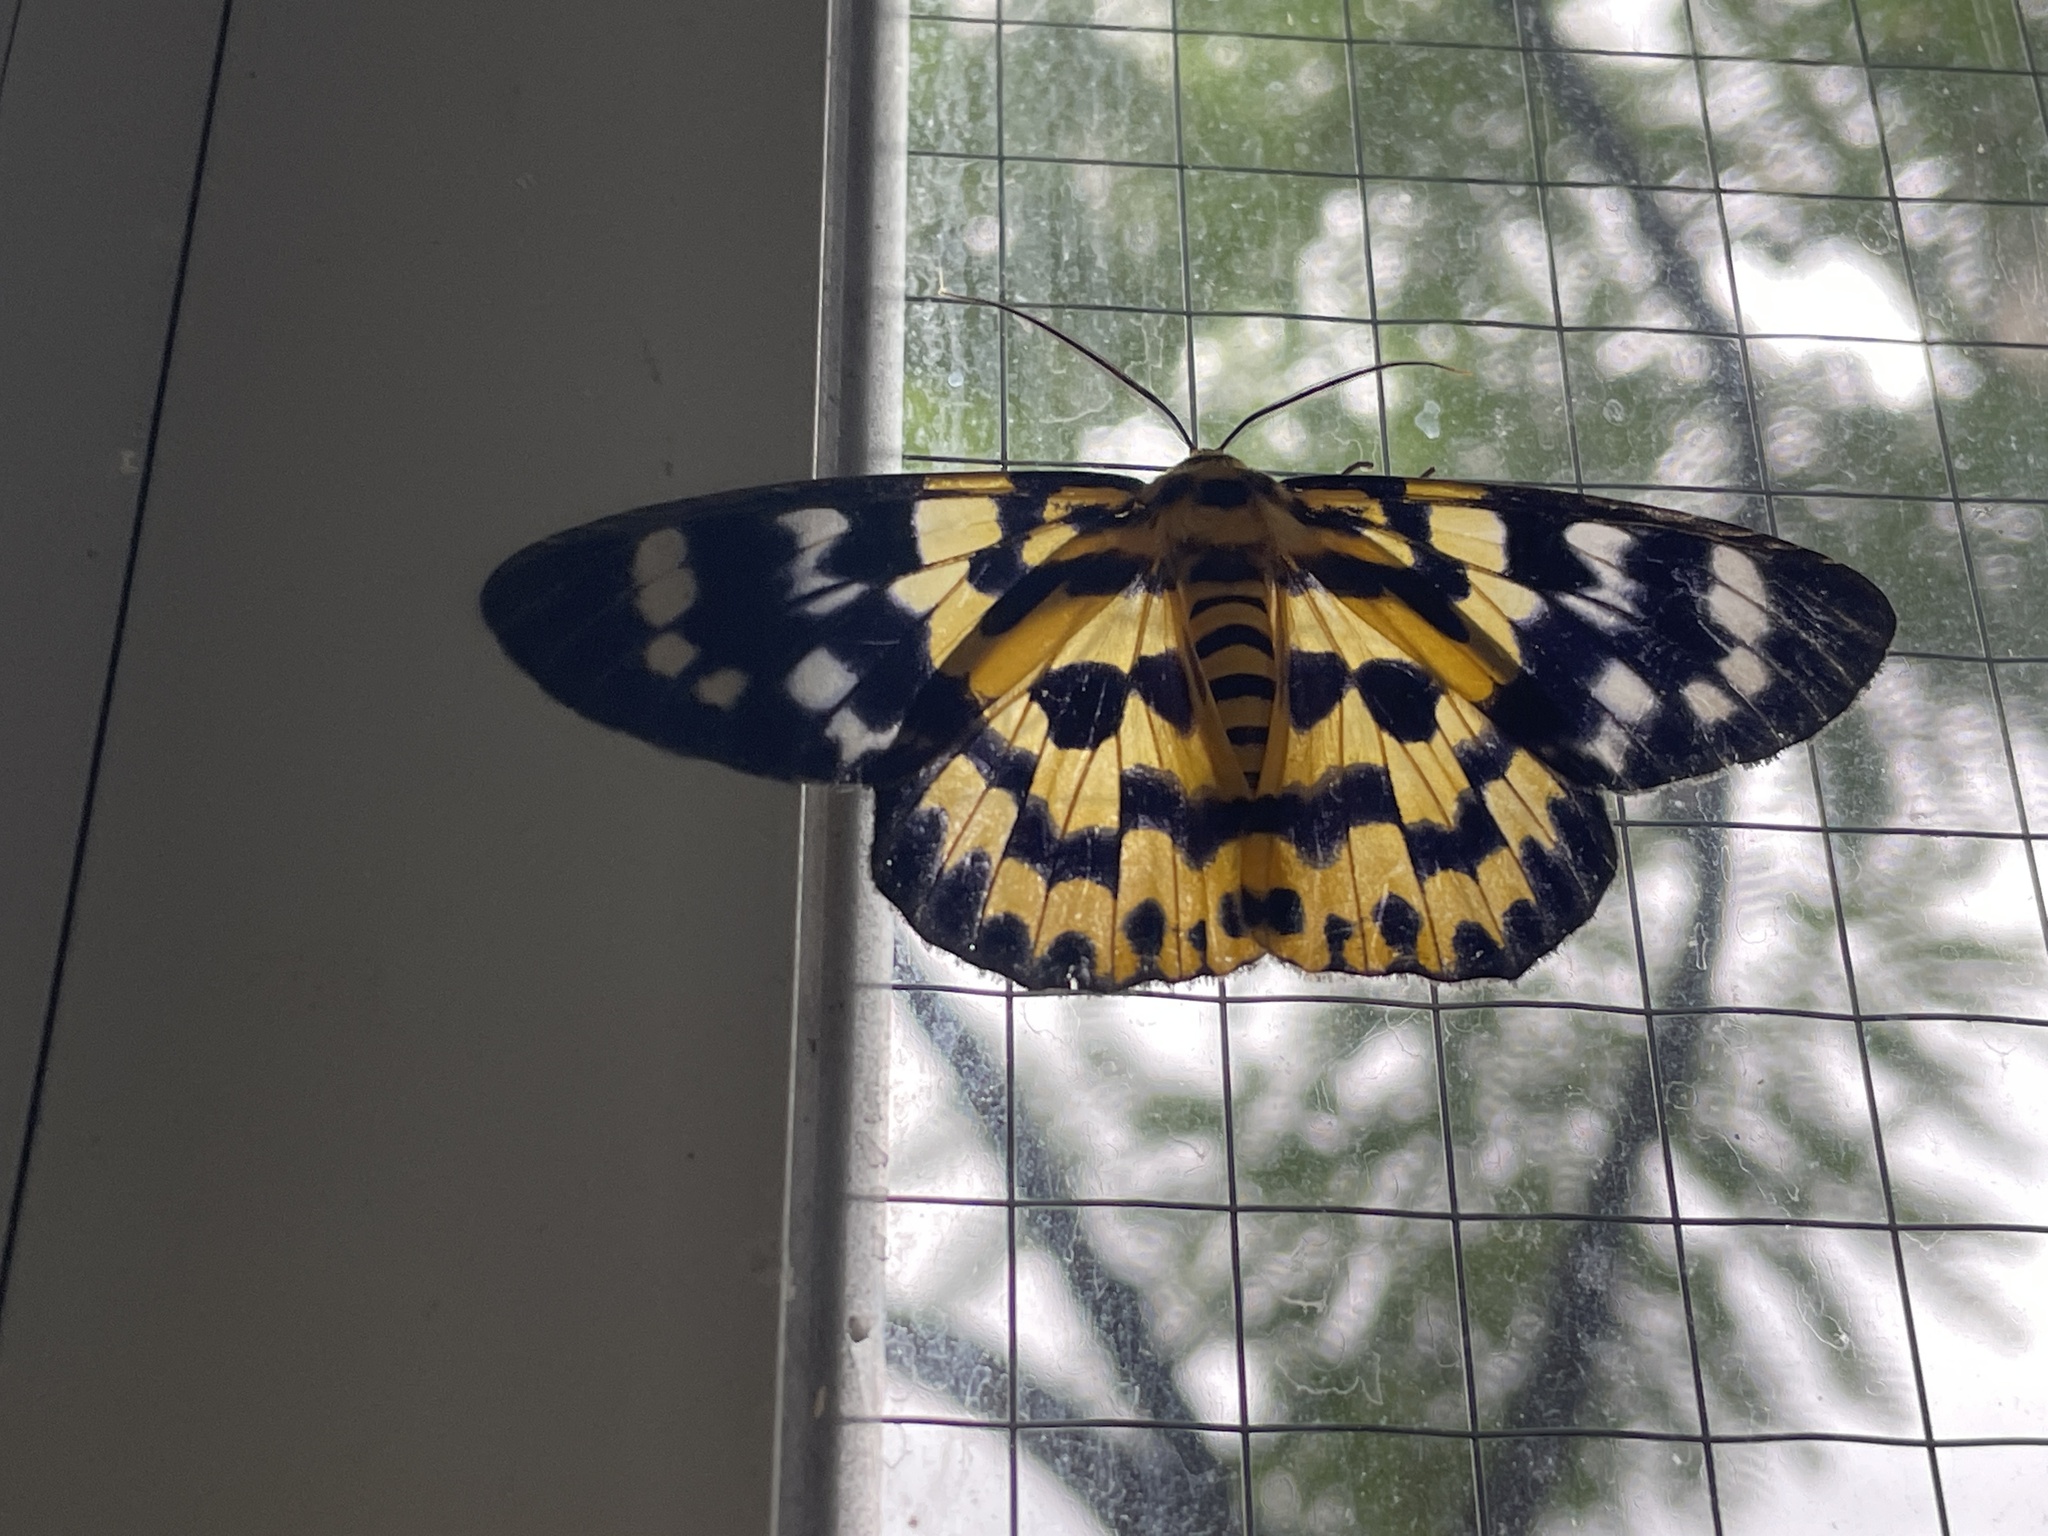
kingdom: Animalia
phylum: Arthropoda
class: Insecta
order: Lepidoptera
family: Geometridae
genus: Dysphania
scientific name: Dysphania militaris
